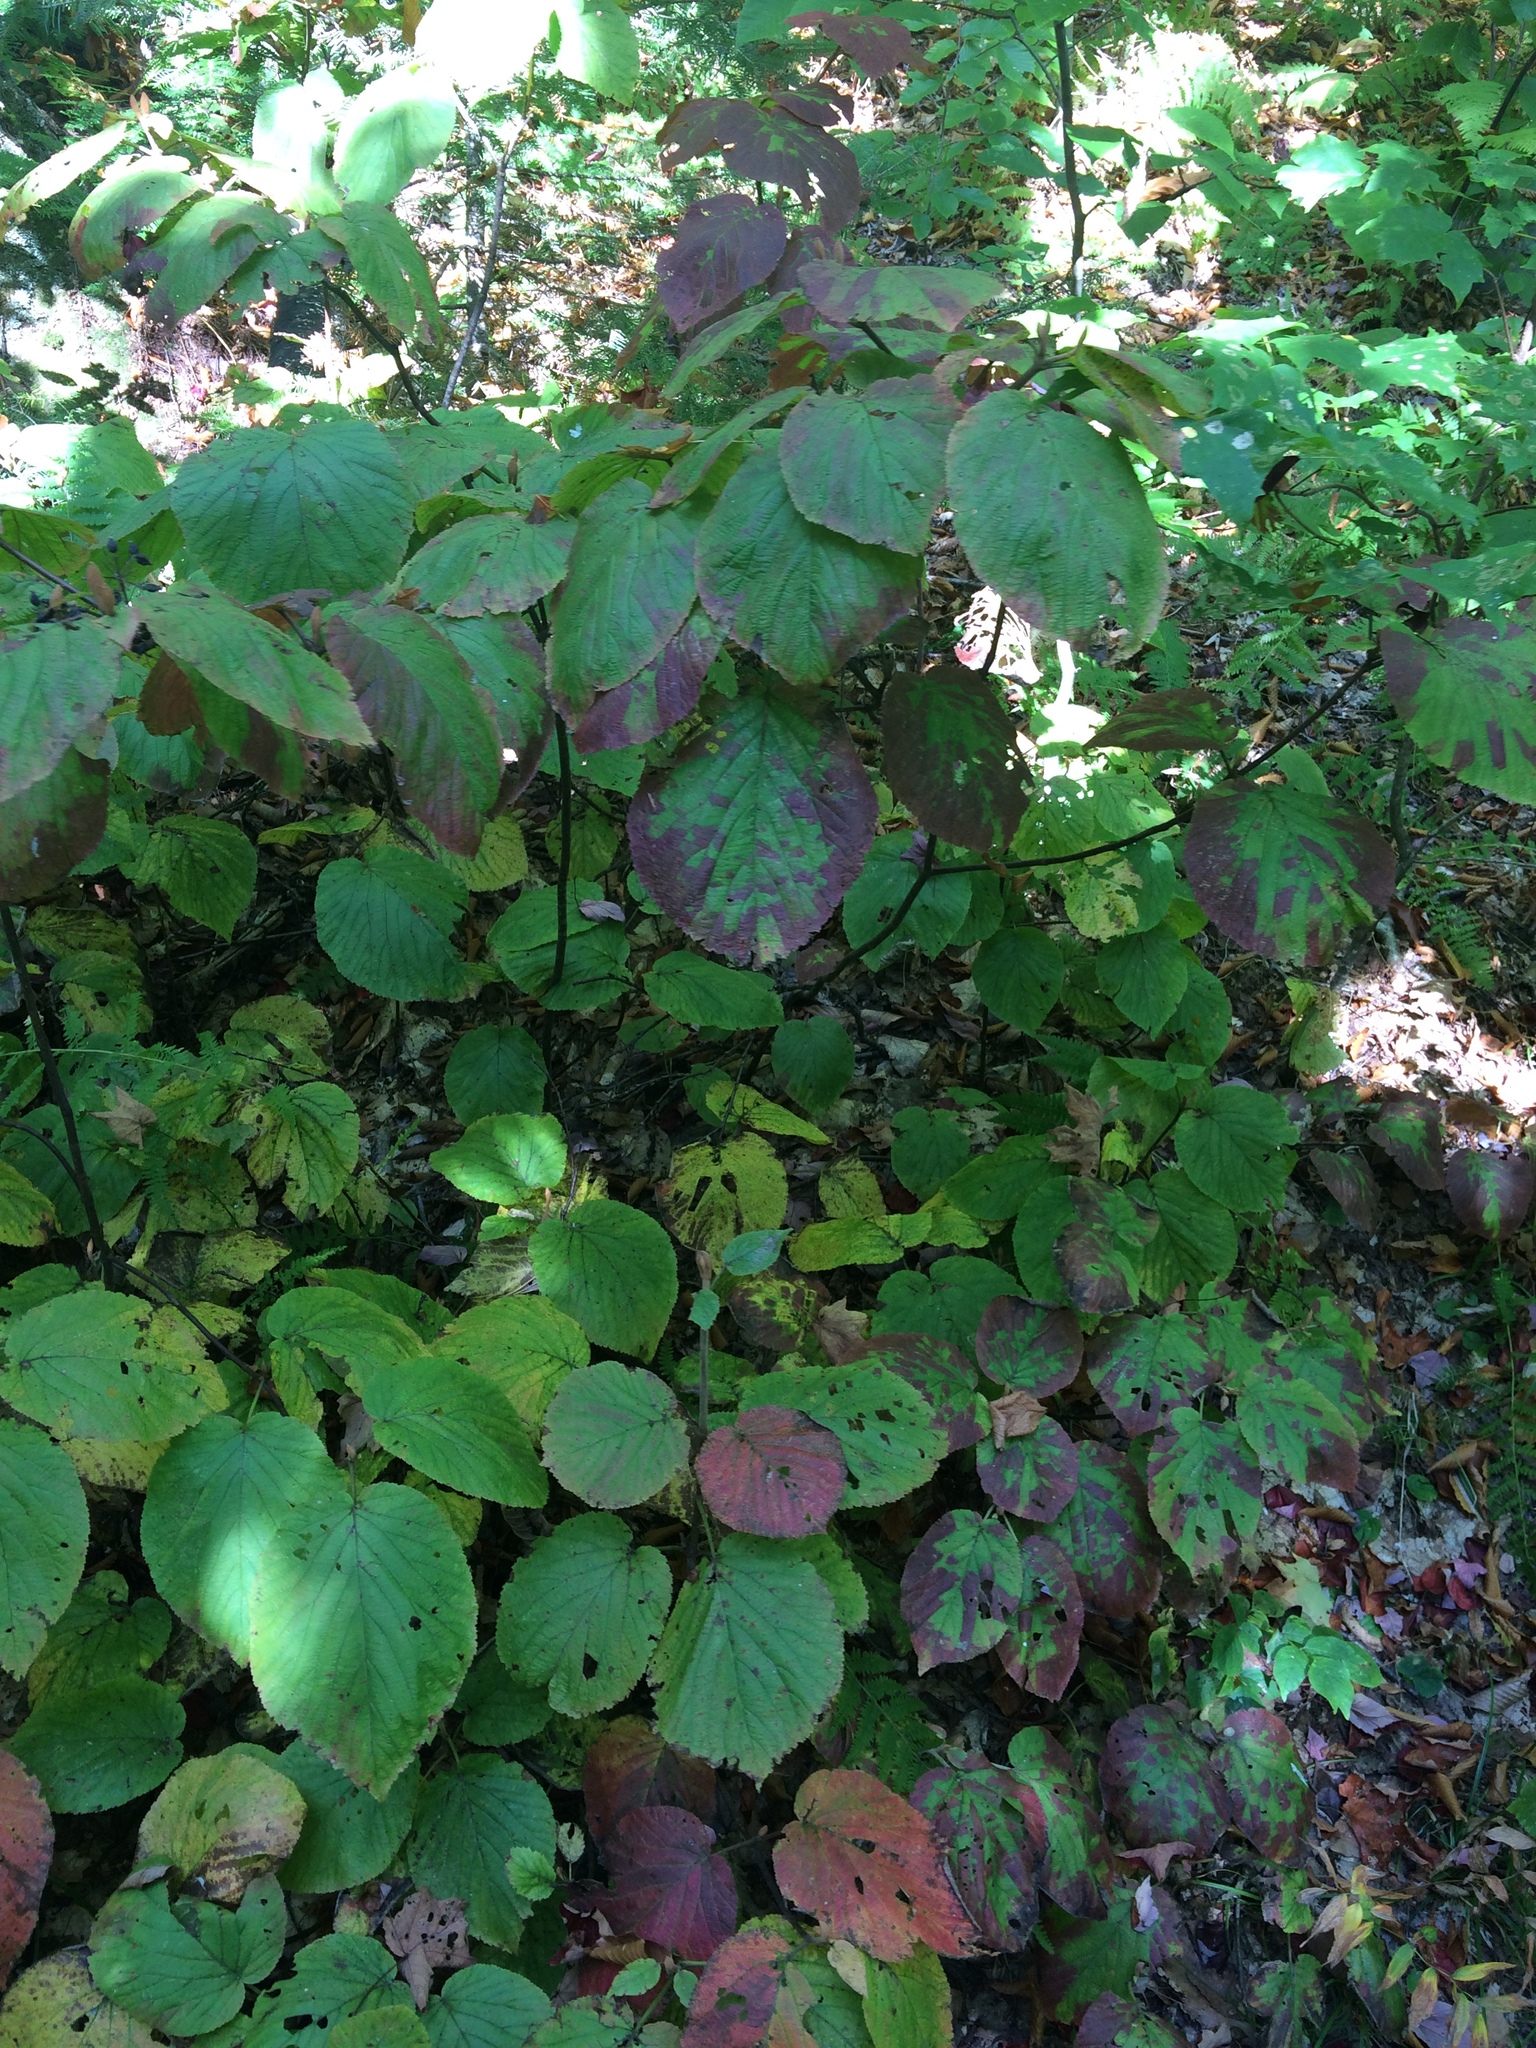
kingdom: Plantae
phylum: Tracheophyta
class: Magnoliopsida
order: Dipsacales
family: Viburnaceae
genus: Viburnum
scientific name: Viburnum lantanoides
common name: Hobblebush
